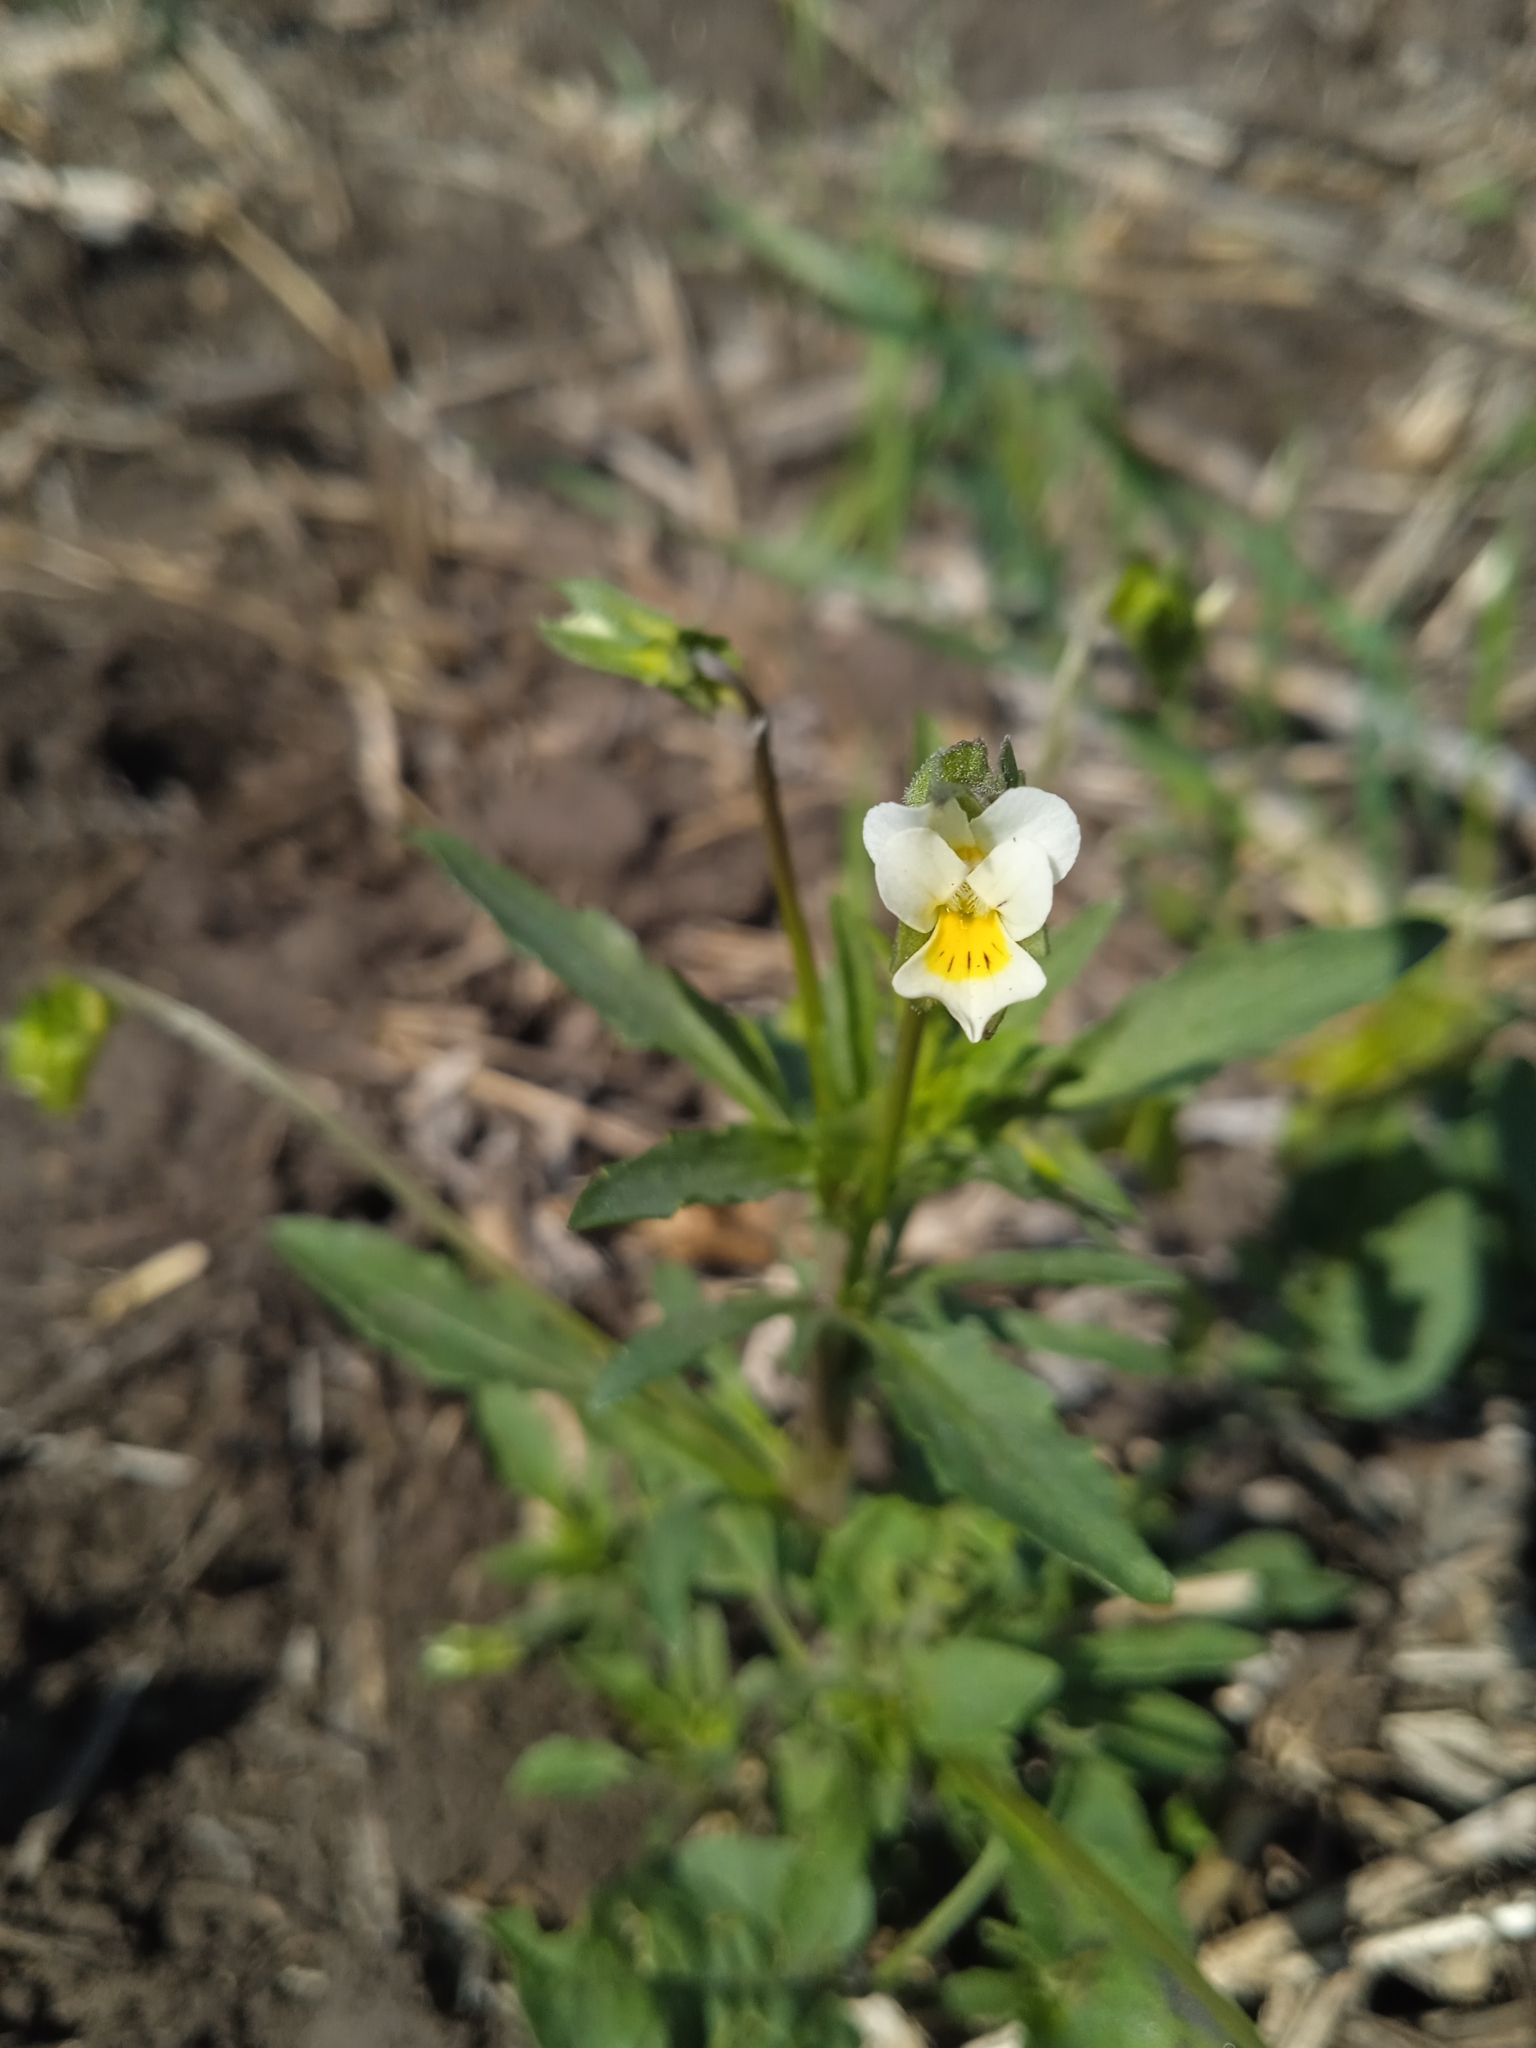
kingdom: Plantae
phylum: Tracheophyta
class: Magnoliopsida
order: Malpighiales
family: Violaceae
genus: Viola
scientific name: Viola arvensis
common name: Field pansy
